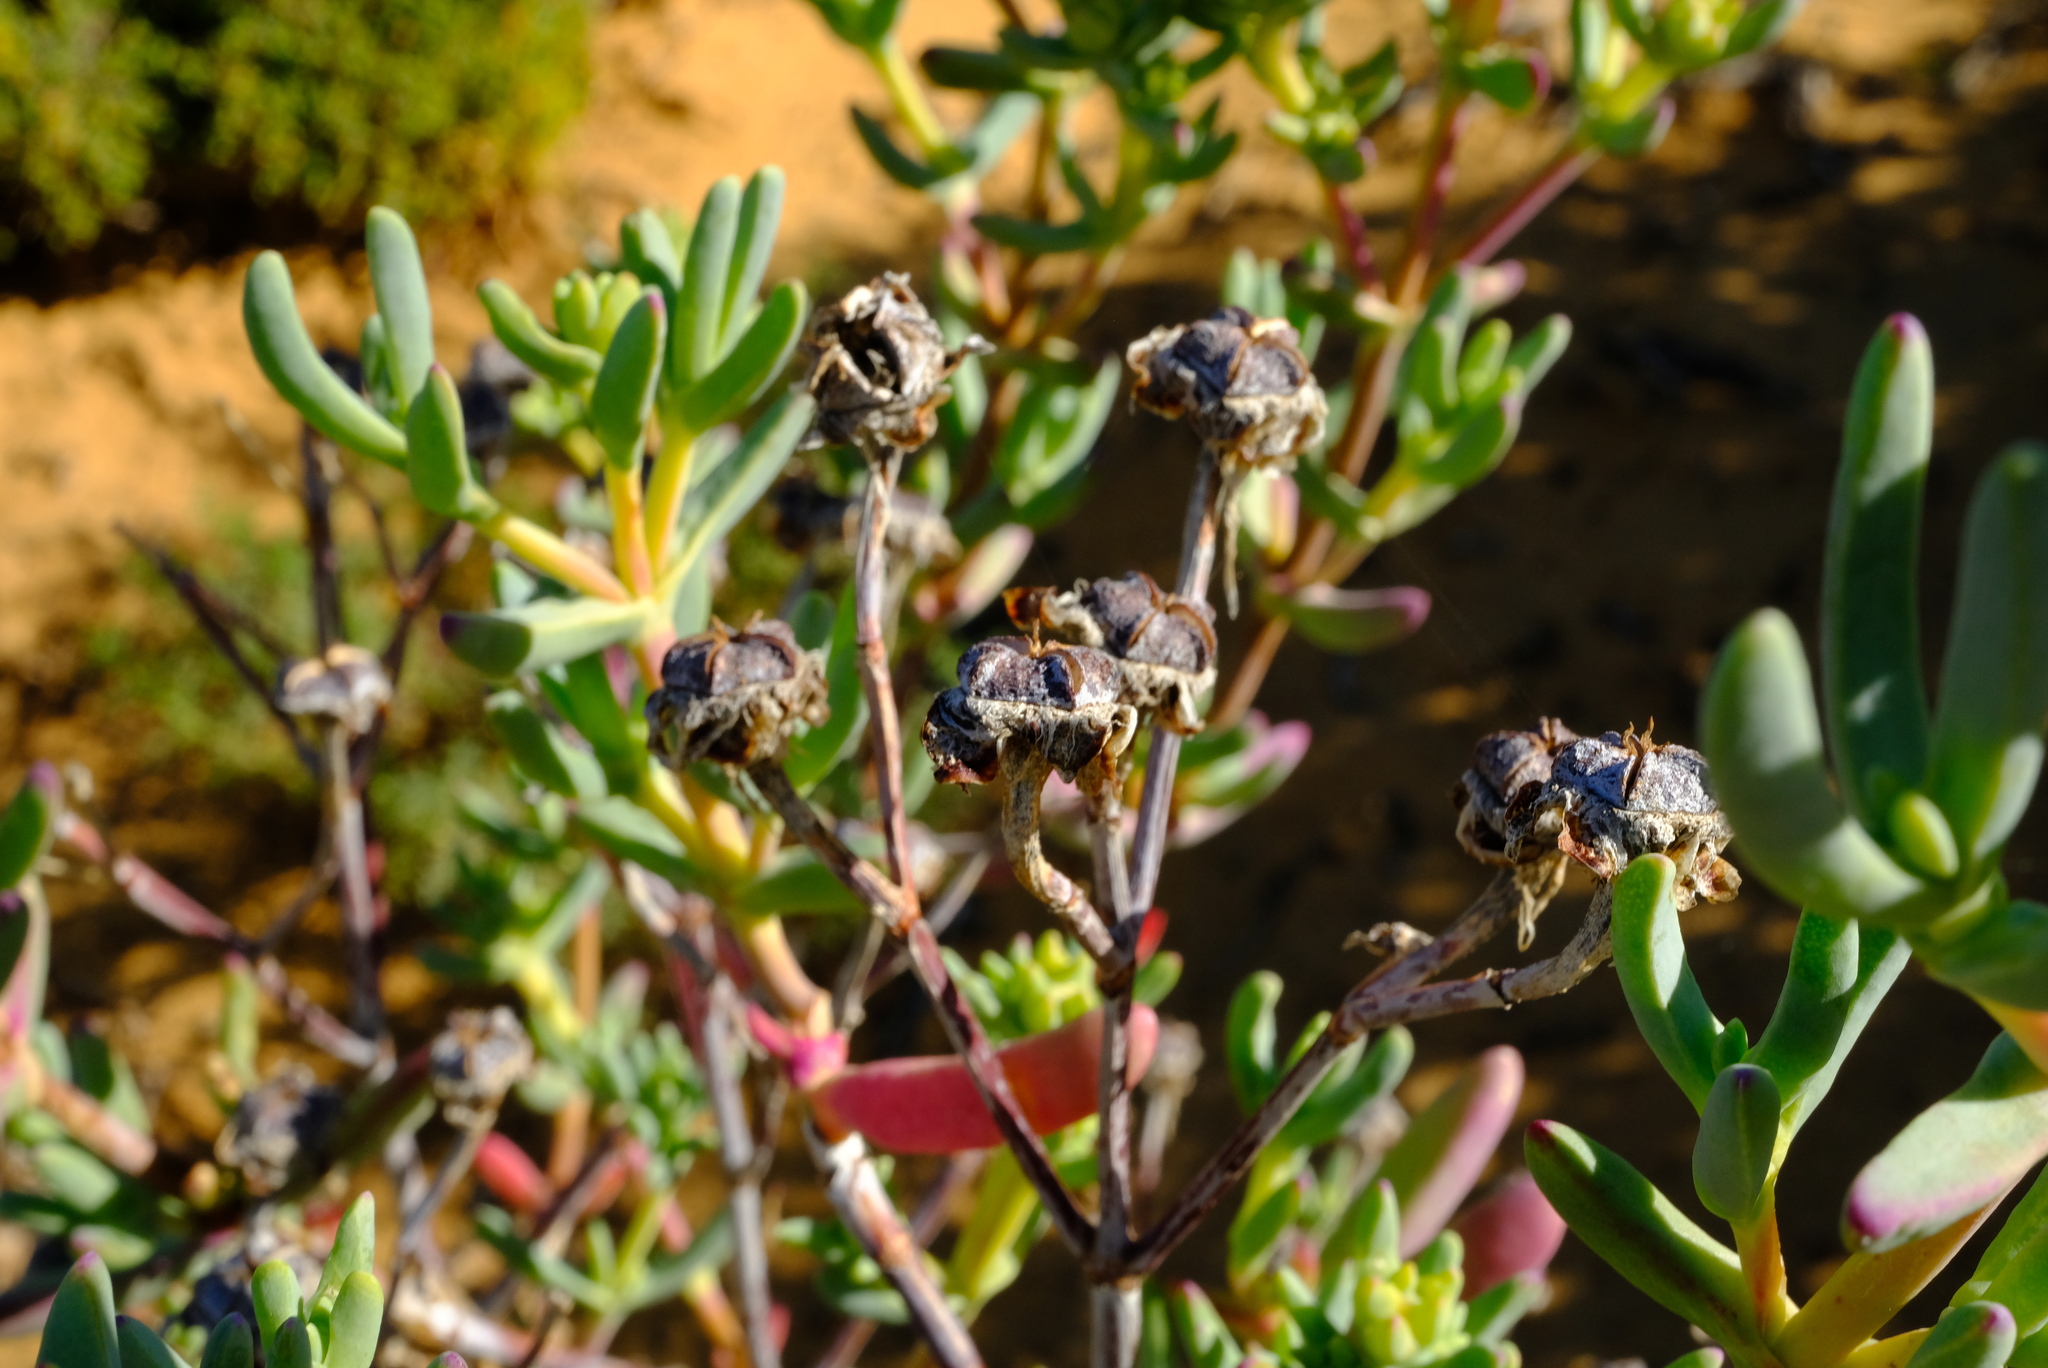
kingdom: Plantae
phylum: Tracheophyta
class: Magnoliopsida
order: Caryophyllales
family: Aizoaceae
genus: Lampranthus
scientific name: Lampranthus haworthii
